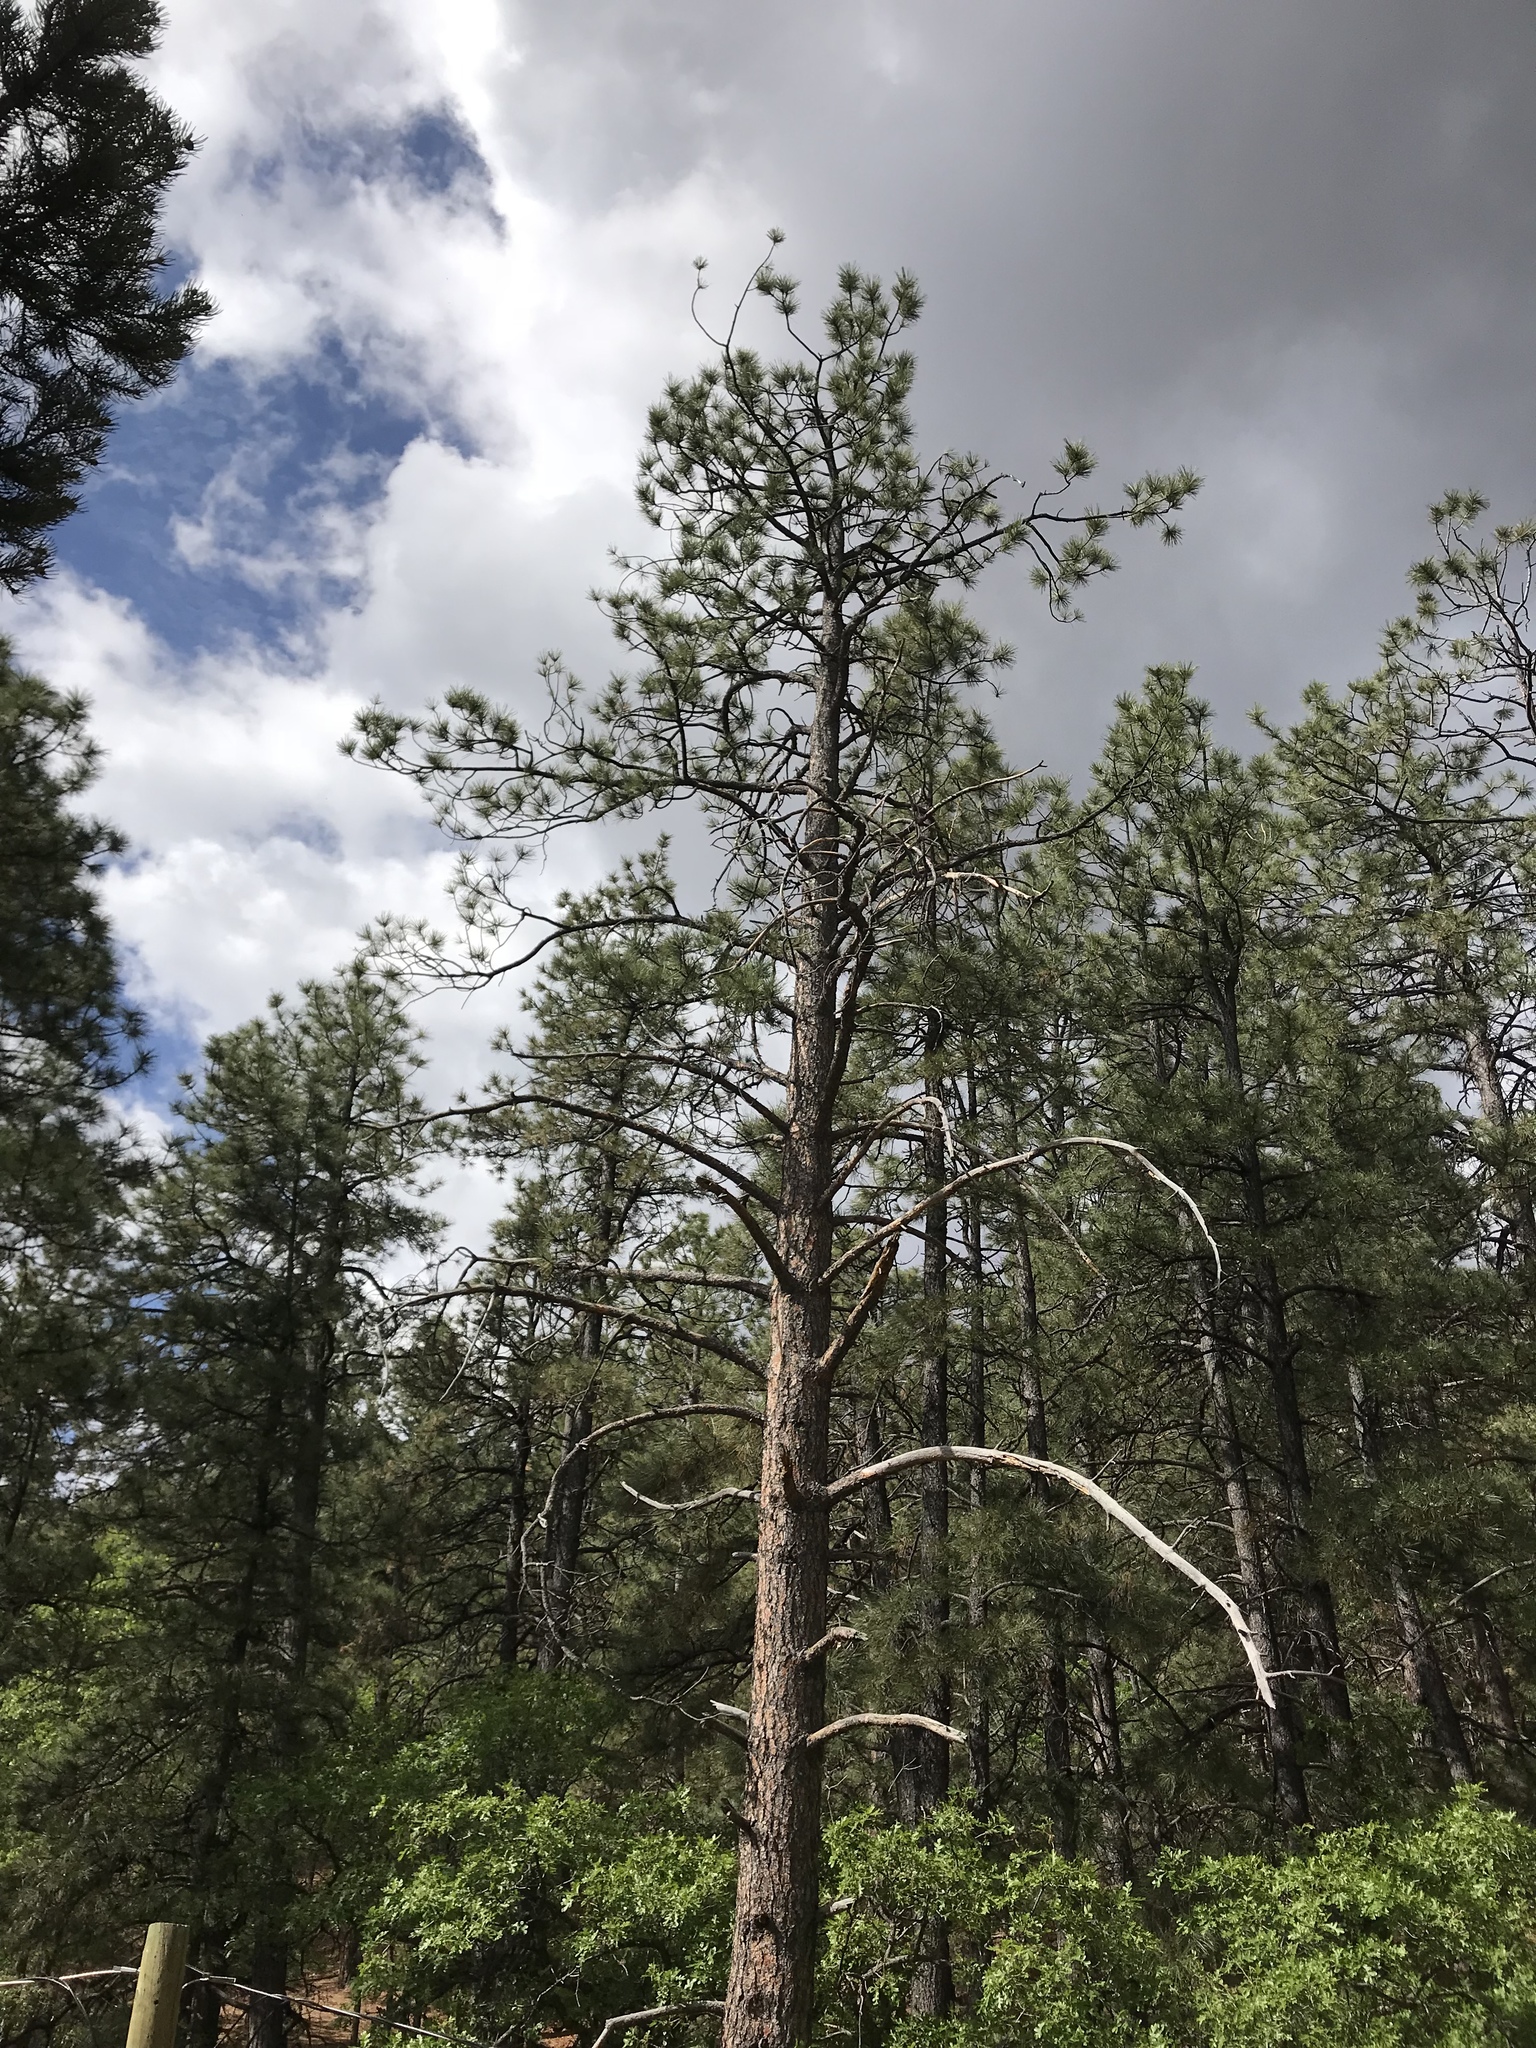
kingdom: Plantae
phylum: Tracheophyta
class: Pinopsida
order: Pinales
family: Pinaceae
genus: Pinus
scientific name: Pinus ponderosa
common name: Western yellow-pine
